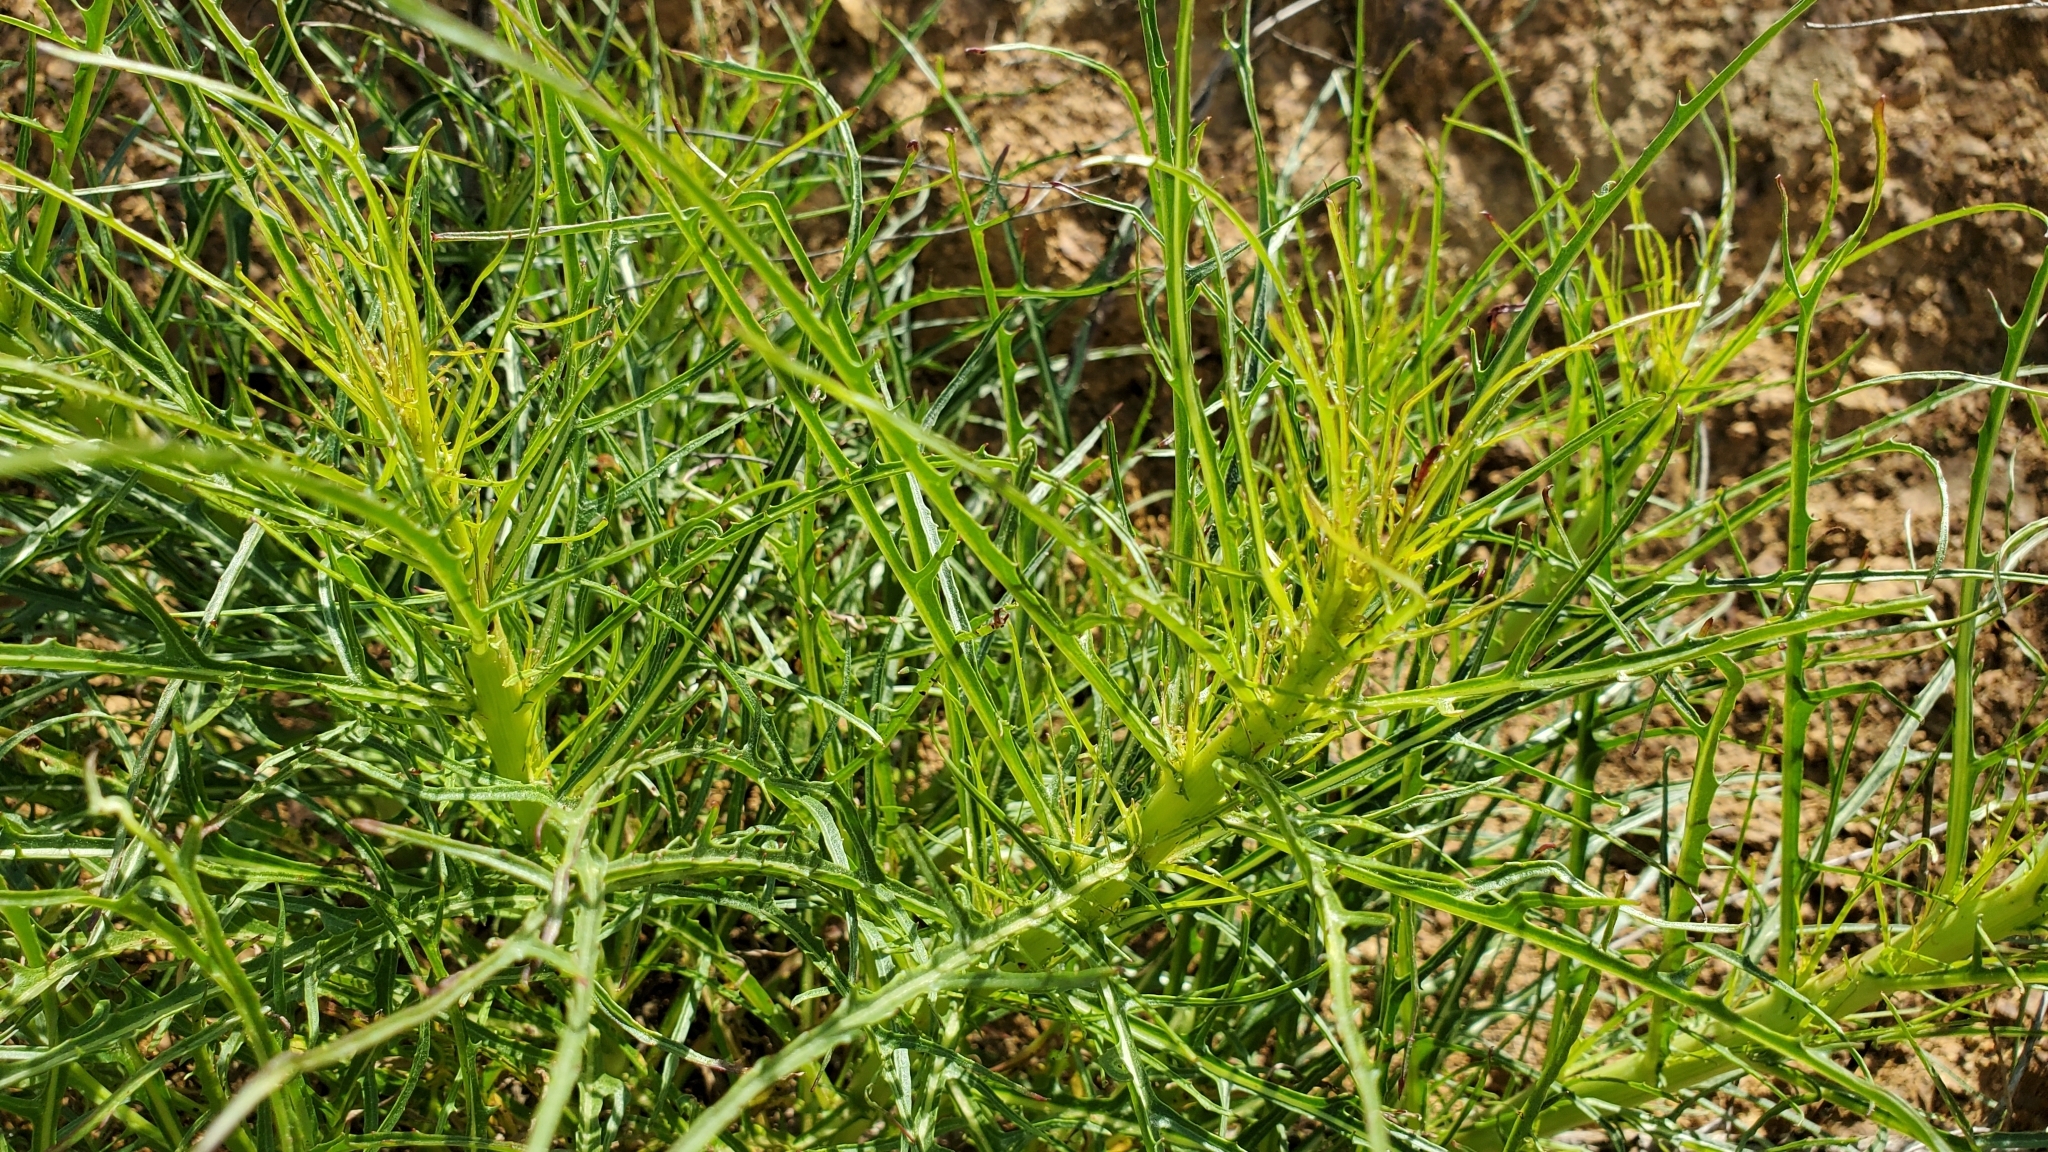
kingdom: Plantae
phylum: Tracheophyta
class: Magnoliopsida
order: Asterales
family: Asteraceae
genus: Malacothrix
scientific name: Malacothrix saxatilis
